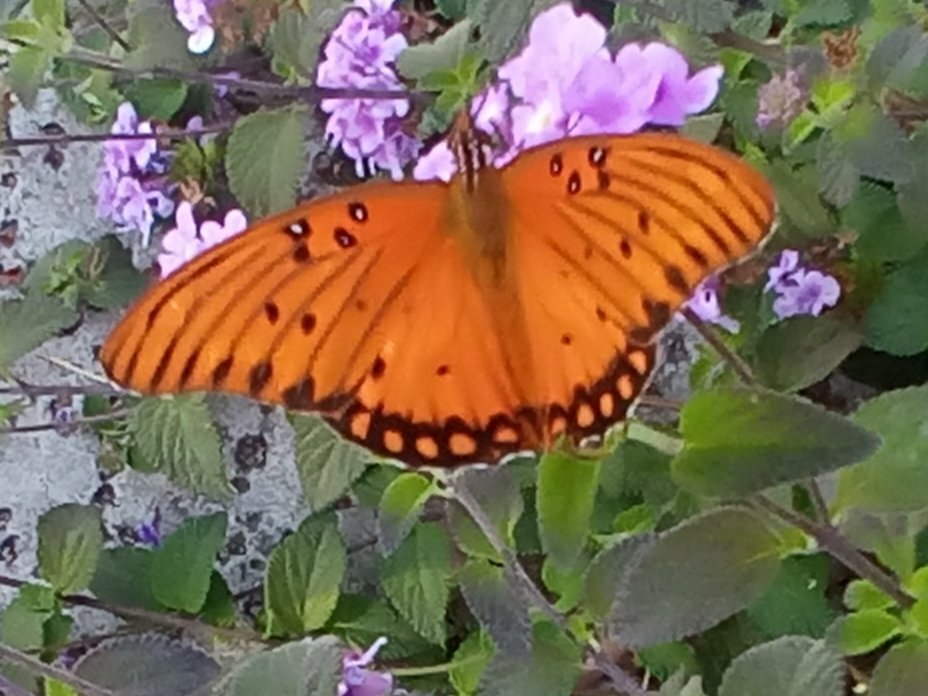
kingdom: Animalia
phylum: Arthropoda
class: Insecta
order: Lepidoptera
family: Nymphalidae
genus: Dione
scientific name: Dione vanillae
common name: Gulf fritillary
